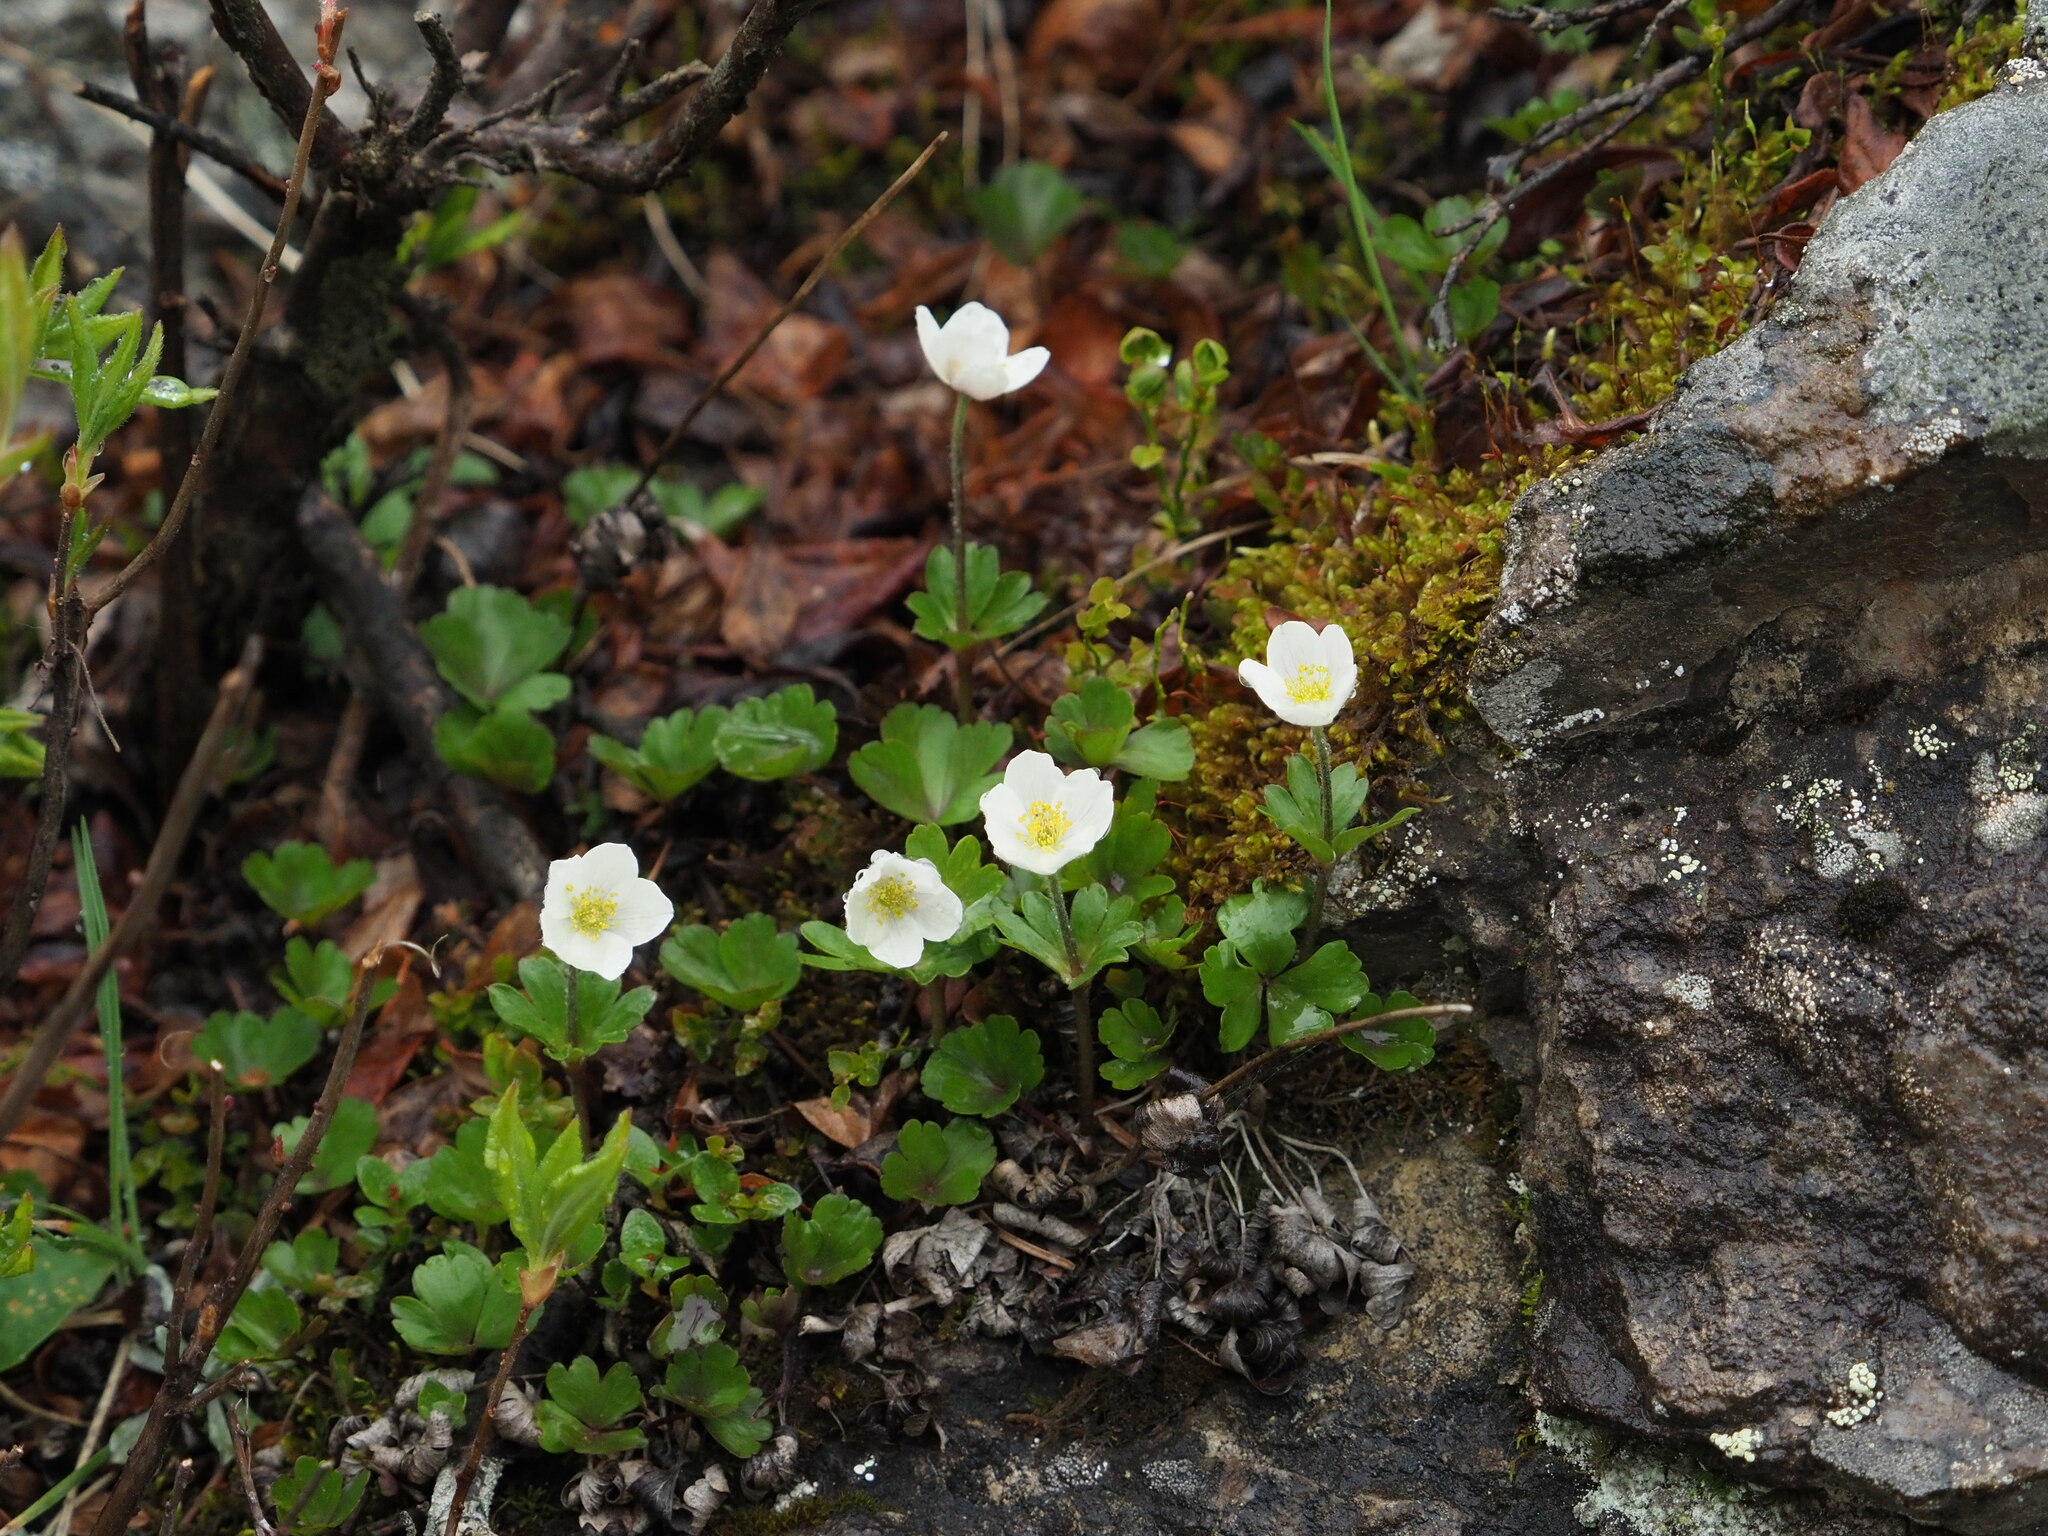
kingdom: Plantae
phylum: Tracheophyta
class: Magnoliopsida
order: Ranunculales
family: Ranunculaceae
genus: Anemone
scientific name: Anemone parviflora
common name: Northern anemone
